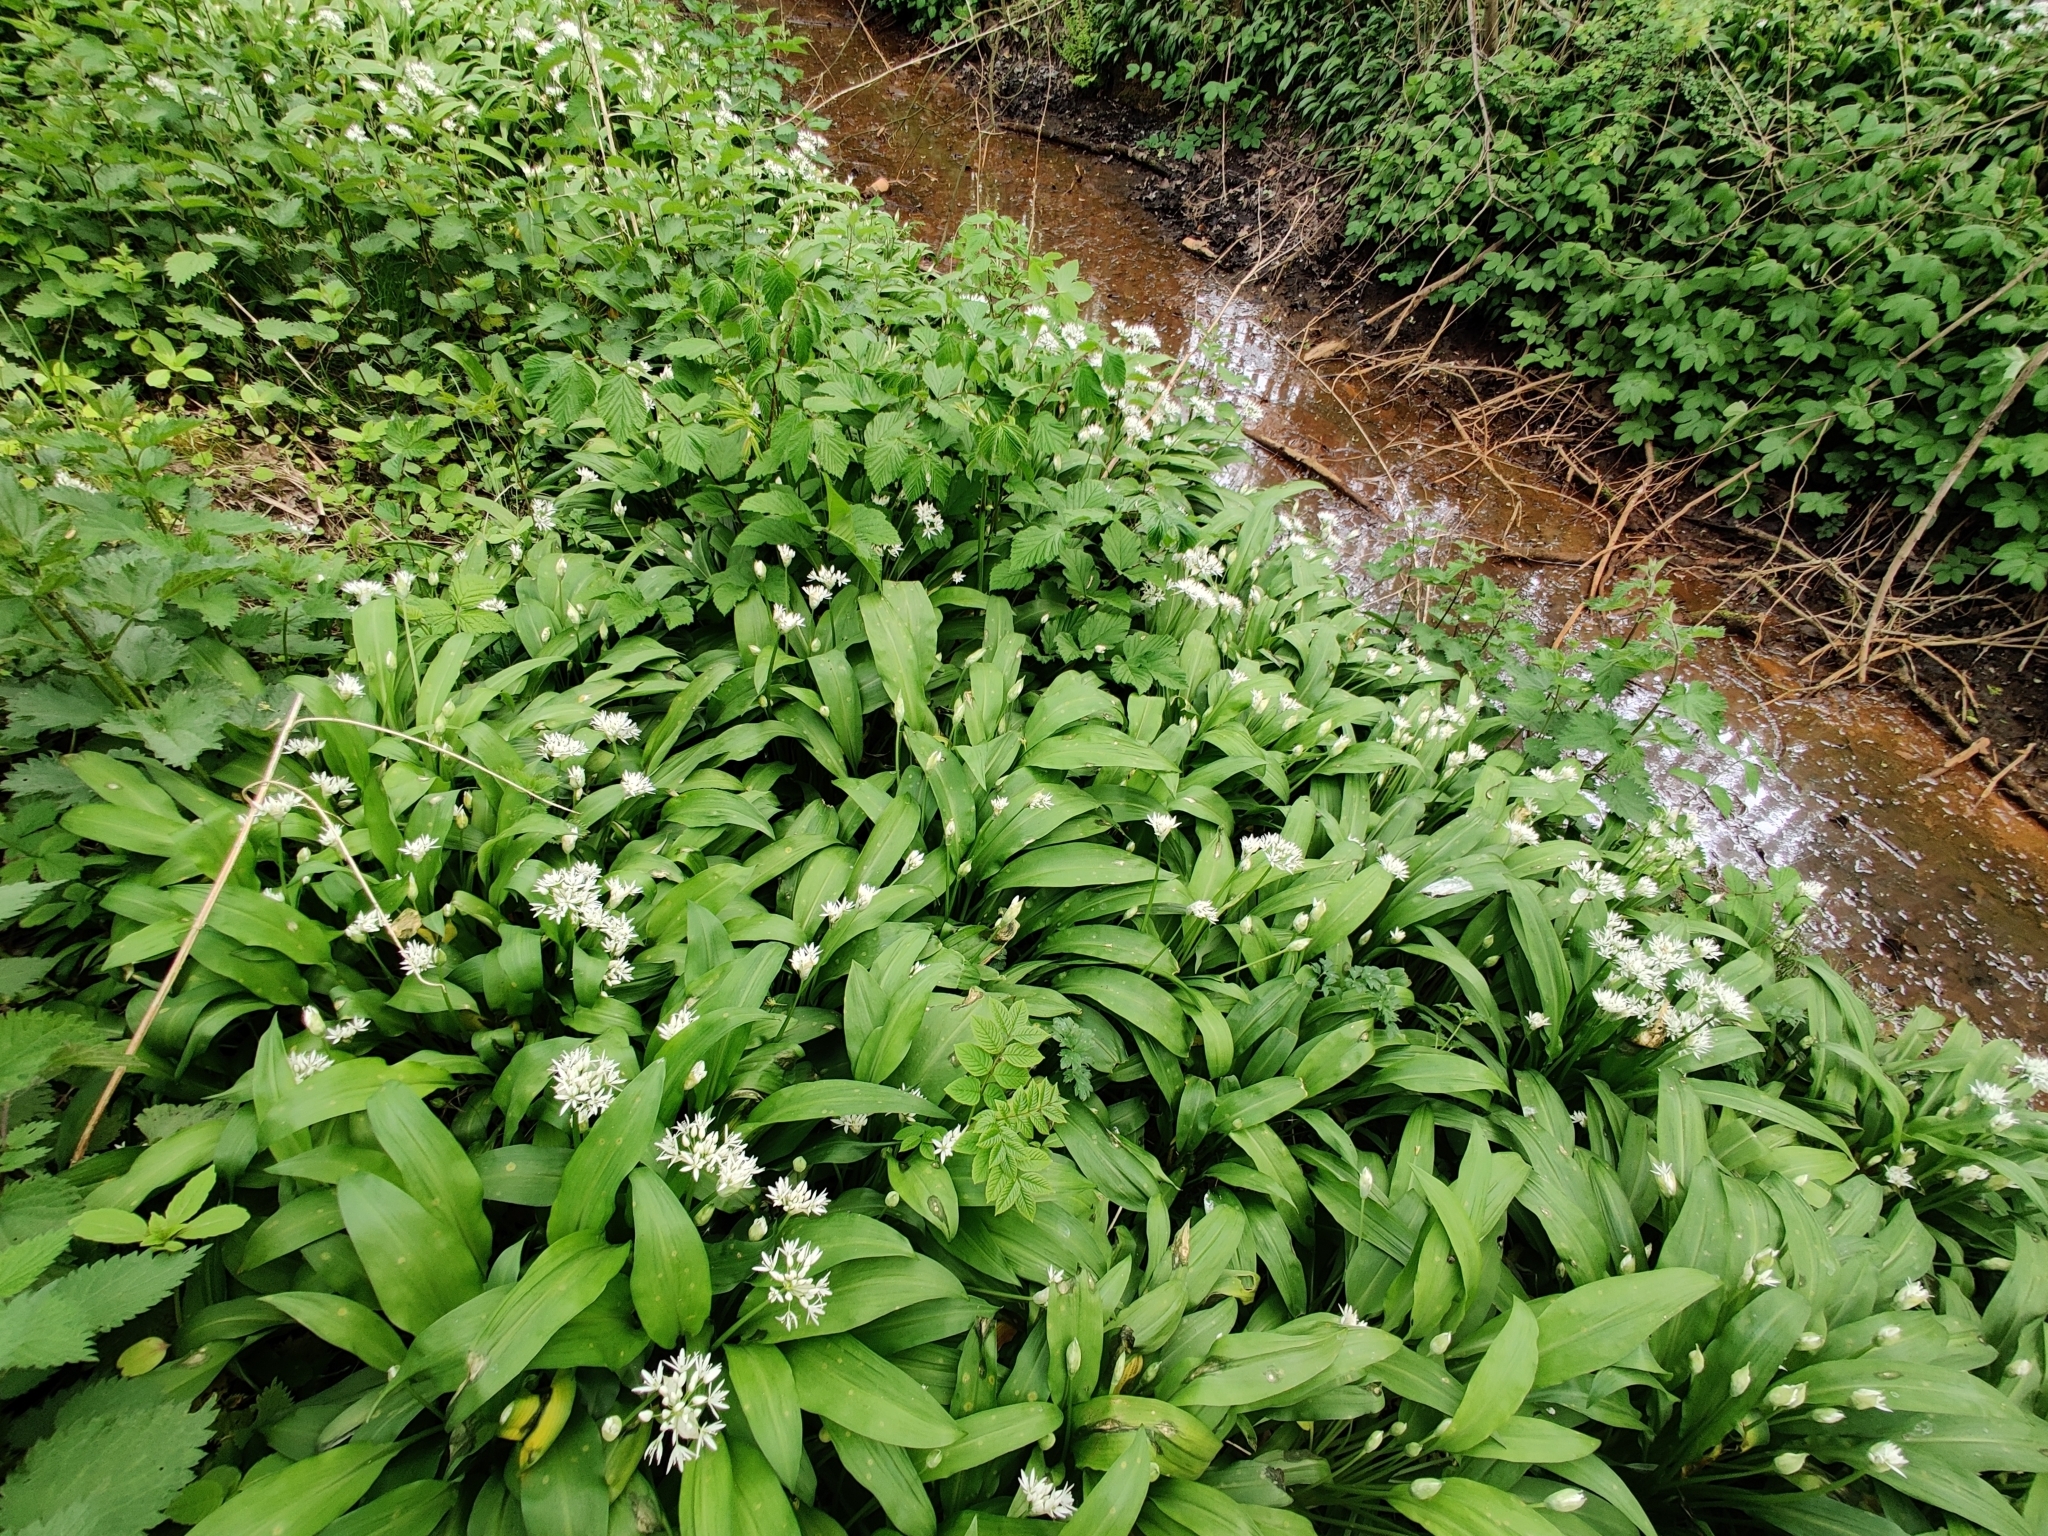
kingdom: Plantae
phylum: Tracheophyta
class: Liliopsida
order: Asparagales
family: Amaryllidaceae
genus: Allium
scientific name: Allium ursinum
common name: Ramsons
